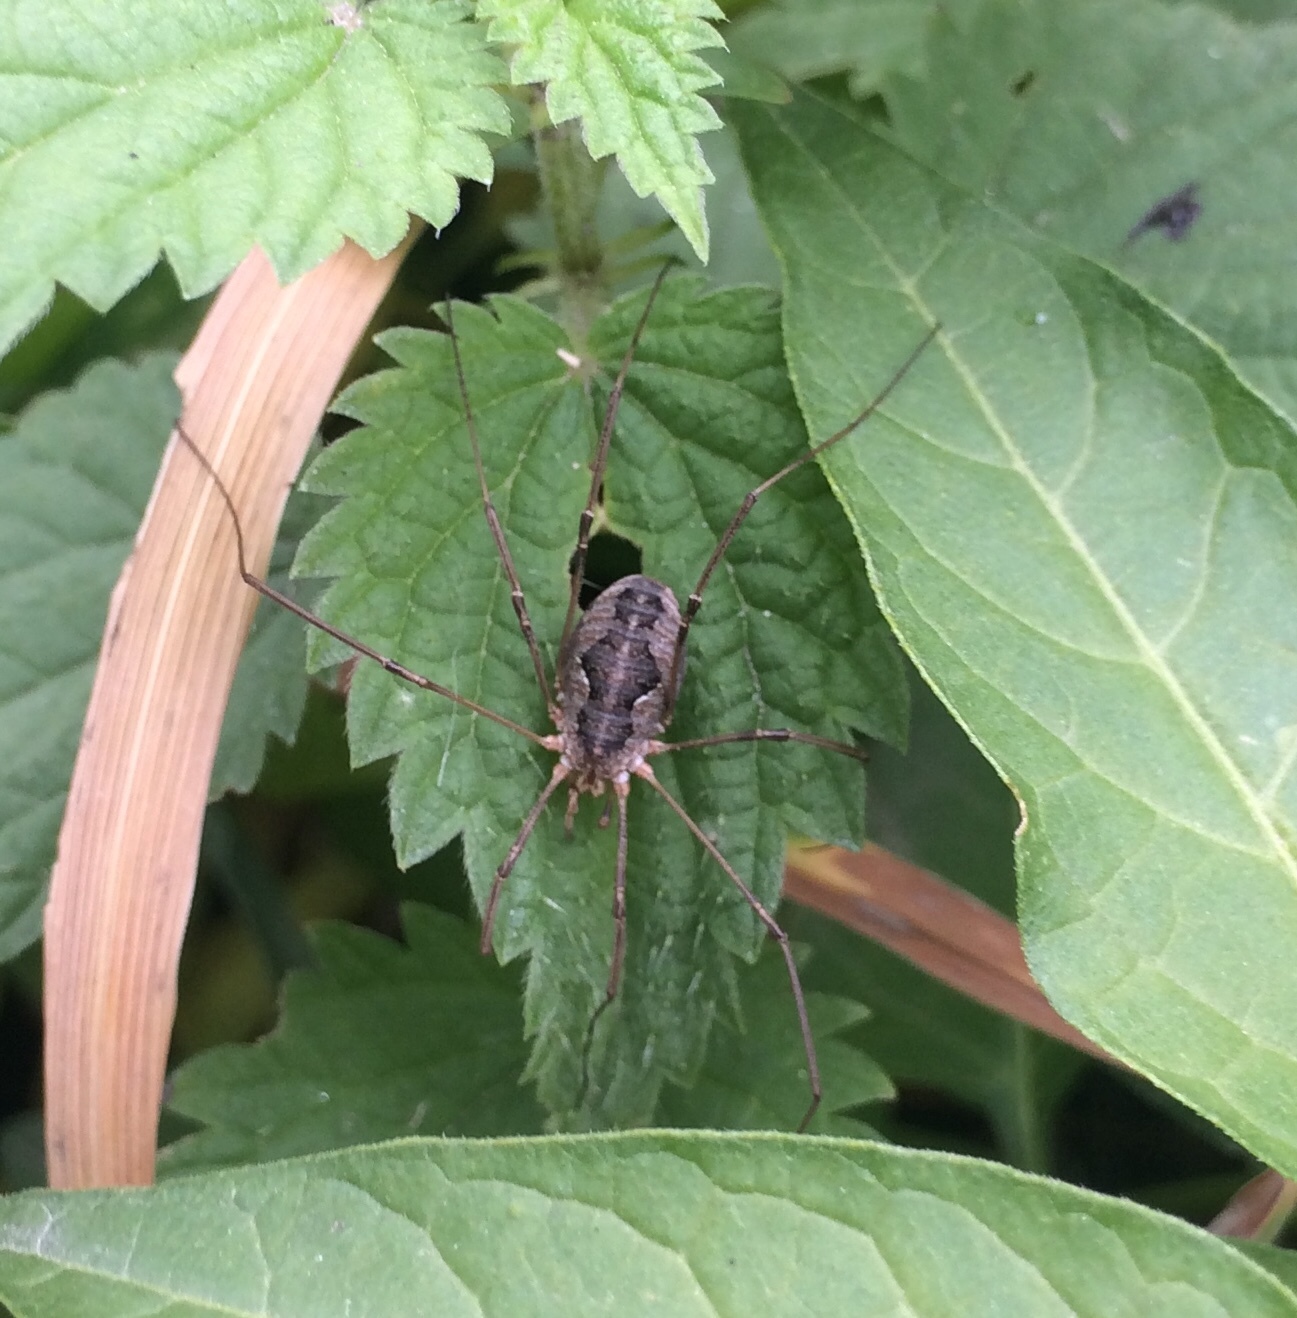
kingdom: Animalia
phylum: Arthropoda
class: Arachnida
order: Opiliones
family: Phalangiidae
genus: Phalangium
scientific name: Phalangium opilio
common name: Daddy longleg
